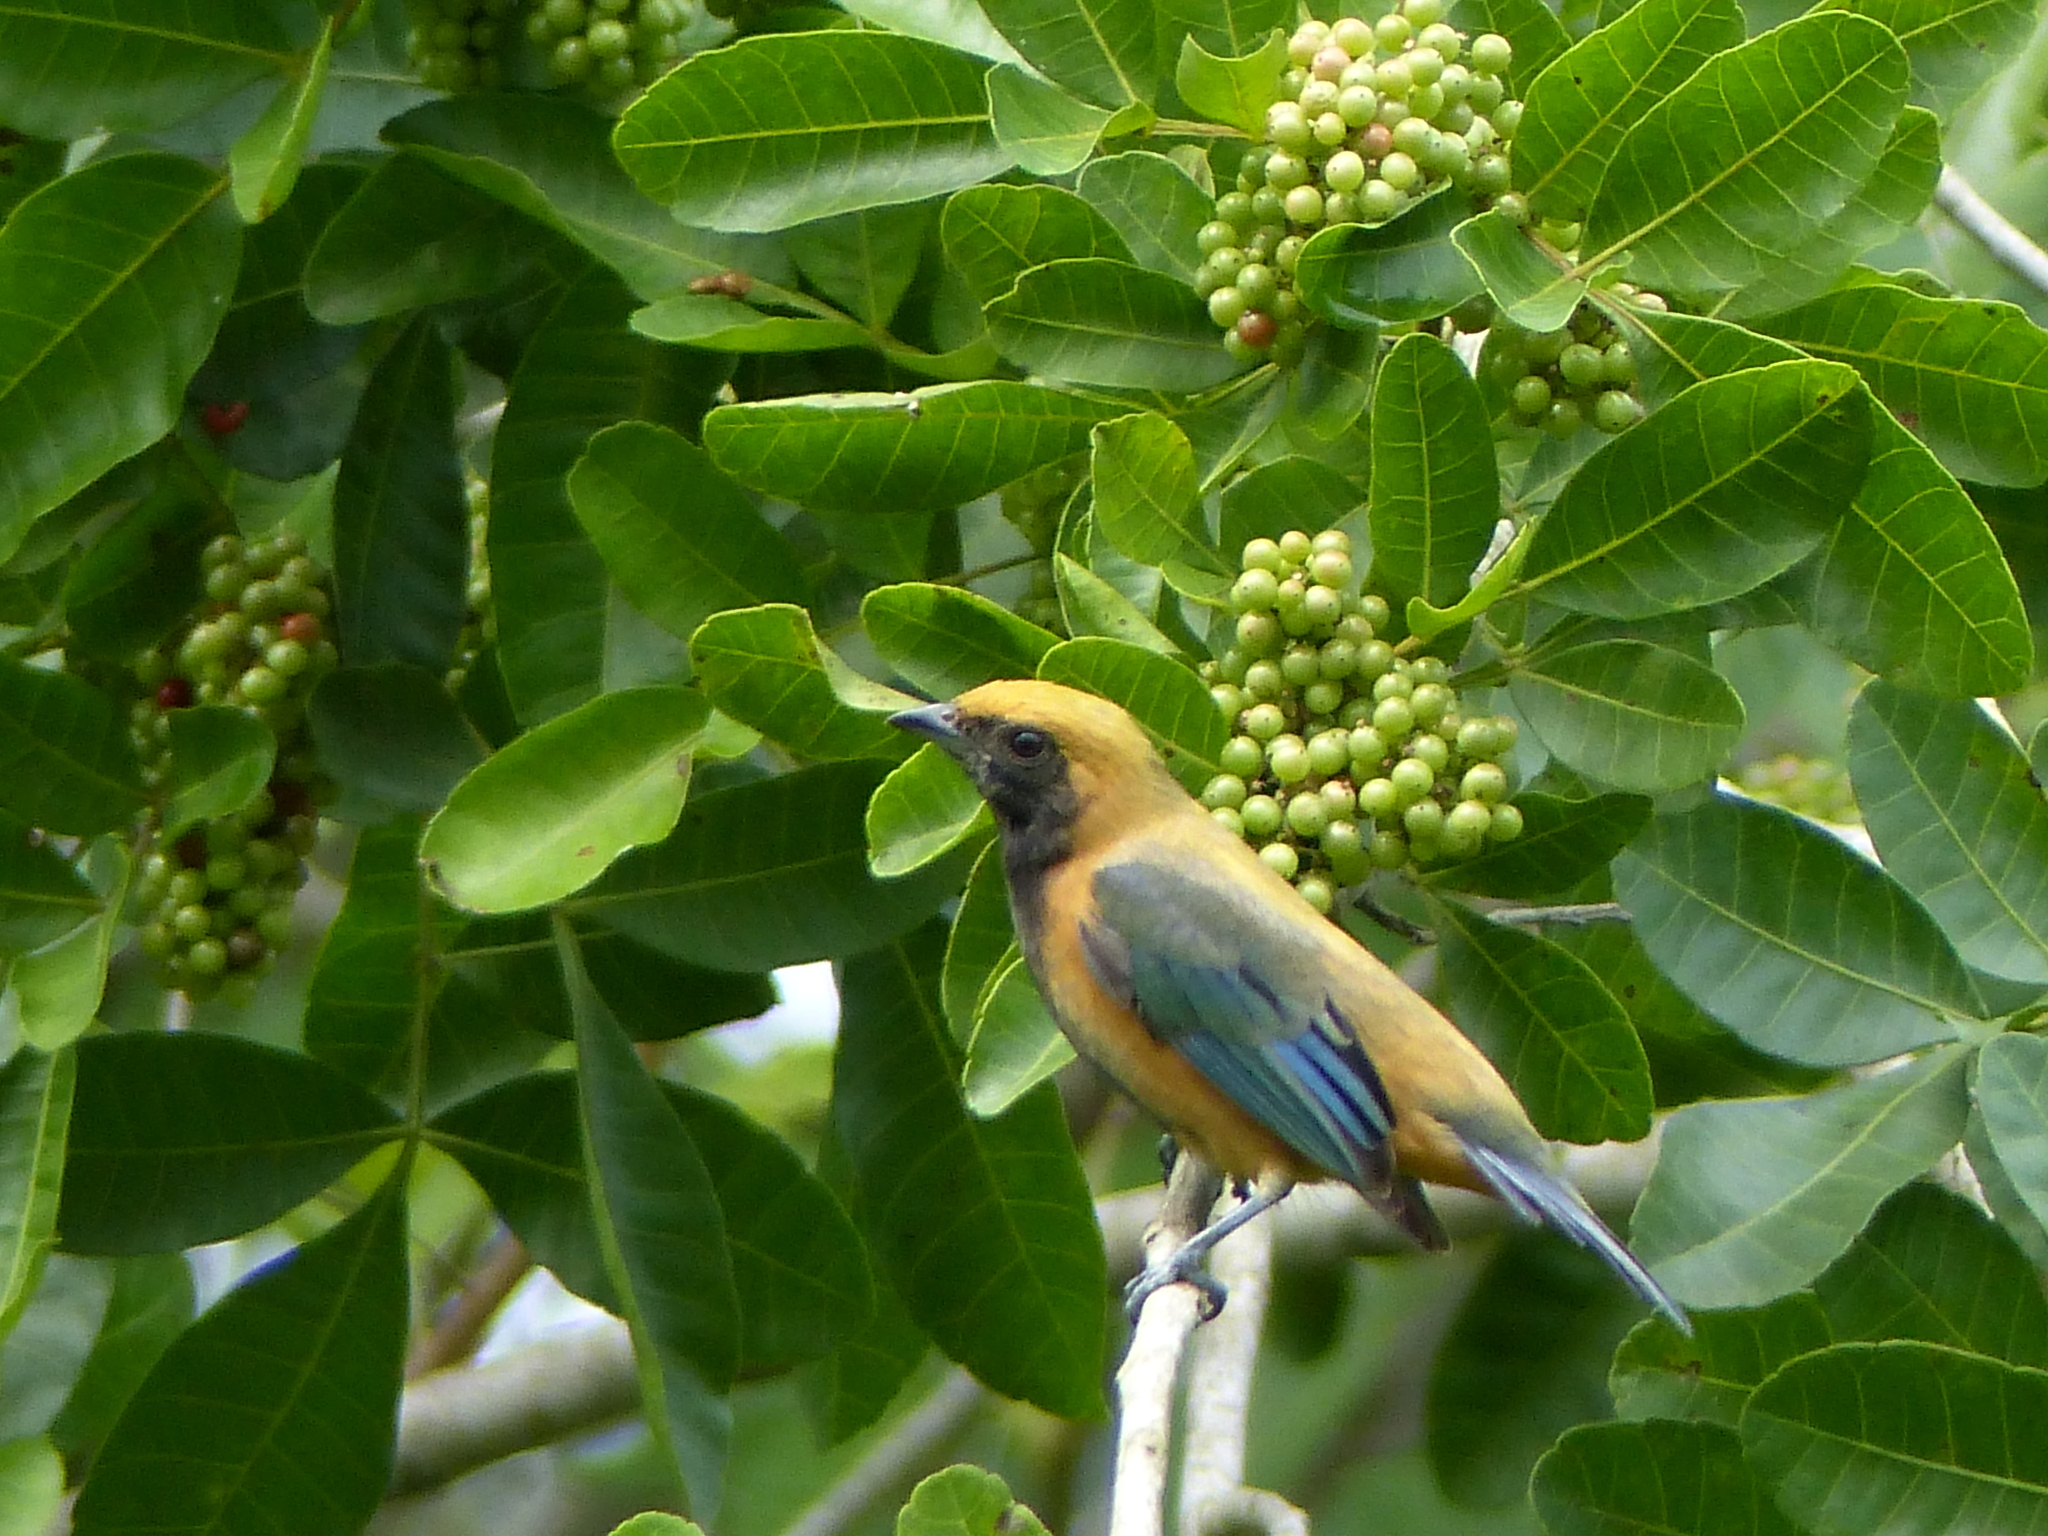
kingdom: Animalia
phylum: Chordata
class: Aves
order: Passeriformes
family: Thraupidae
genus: Stilpnia
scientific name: Stilpnia cayana
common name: Burnished-buff tanager
